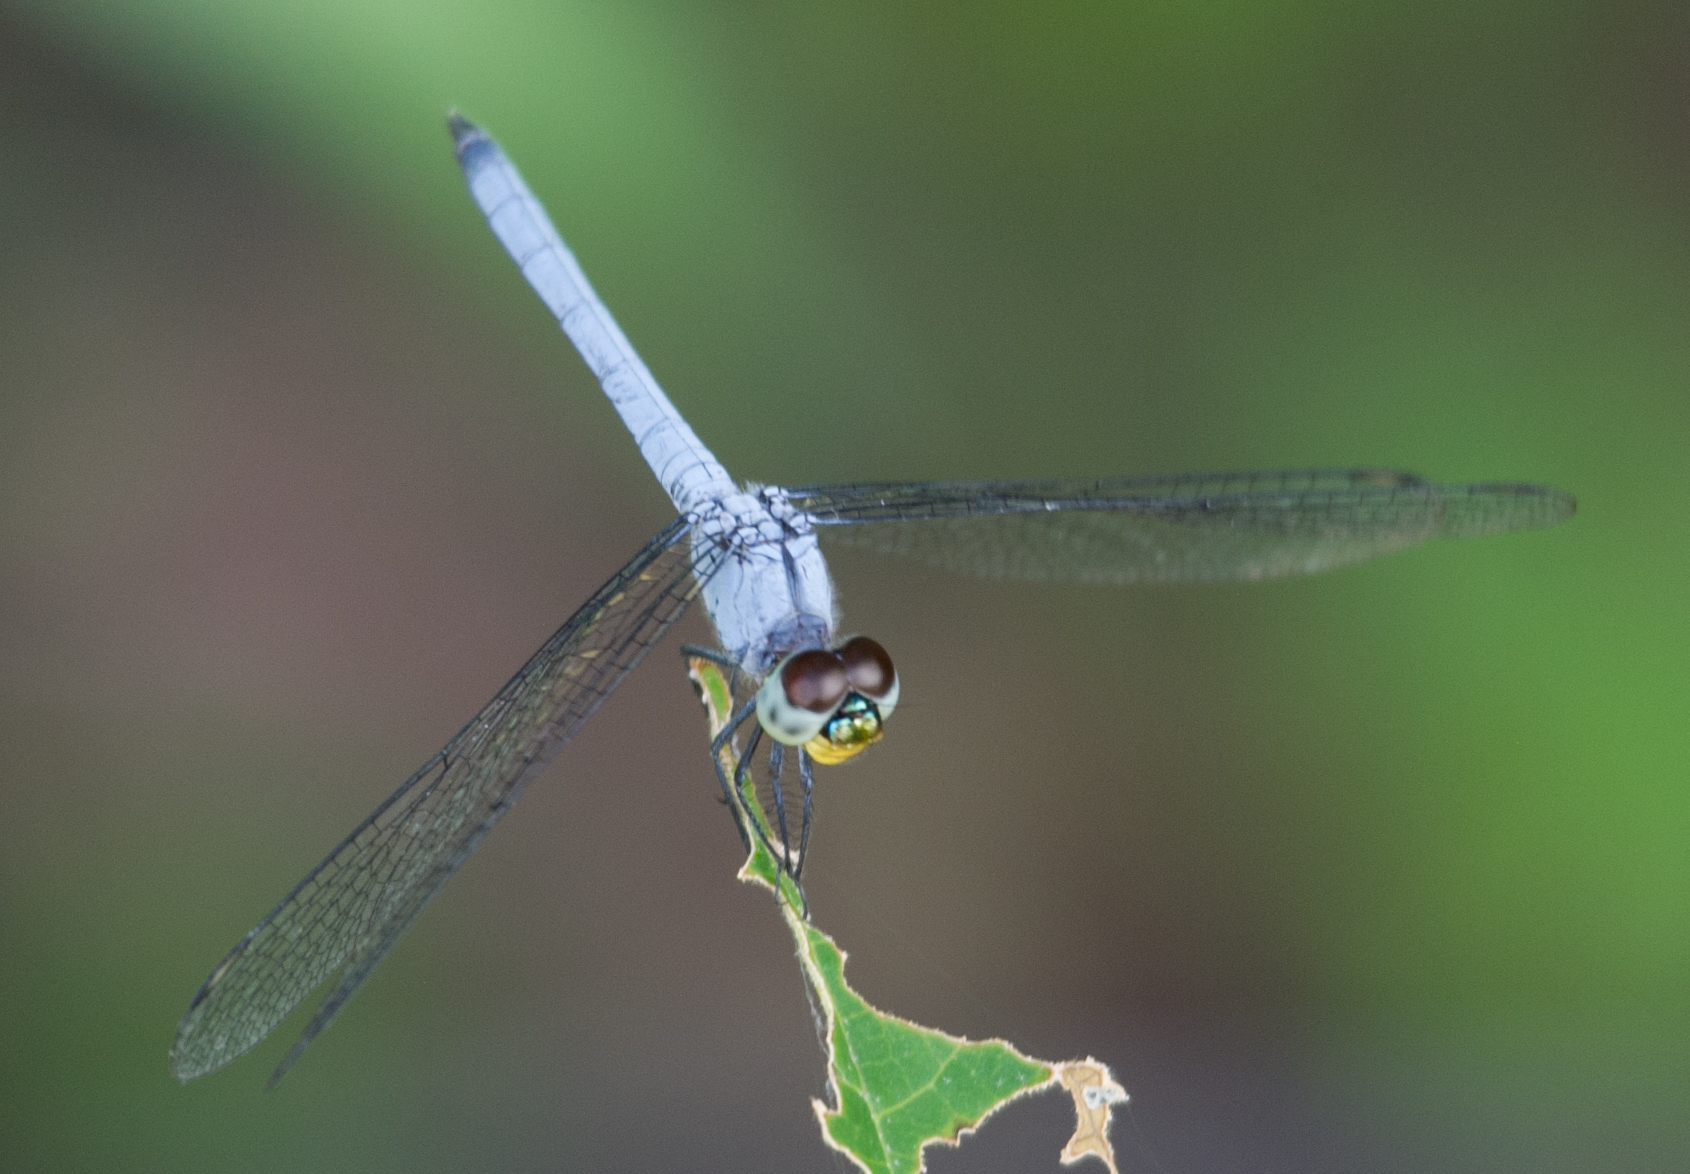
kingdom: Animalia
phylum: Arthropoda
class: Insecta
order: Odonata
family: Libellulidae
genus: Chalcostephia
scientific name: Chalcostephia flavifrons
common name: Inspector
